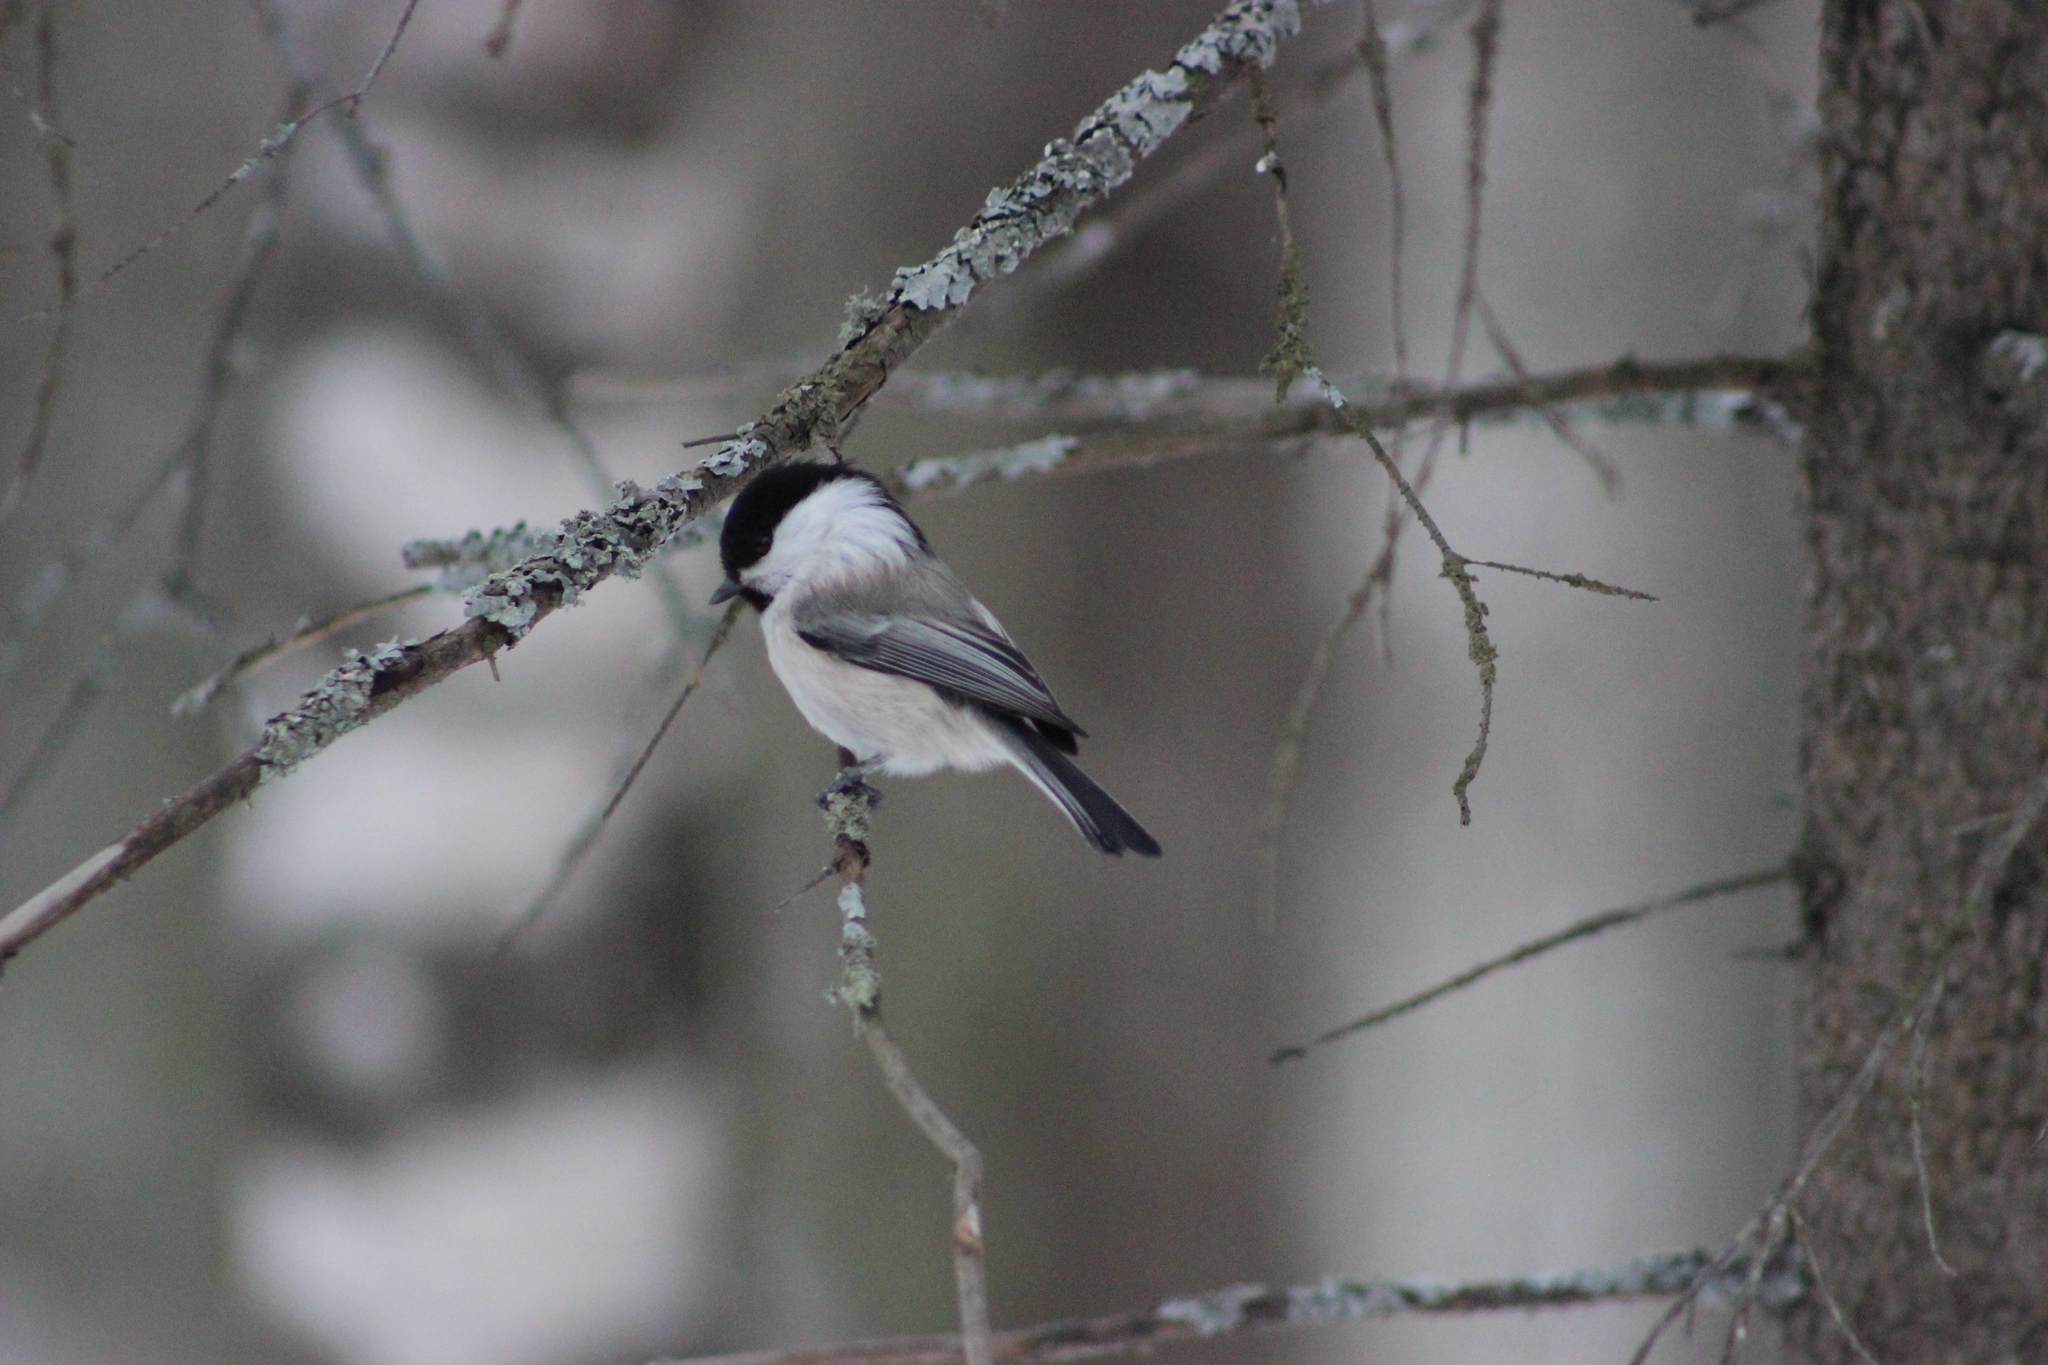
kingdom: Animalia
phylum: Chordata
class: Aves
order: Passeriformes
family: Paridae
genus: Poecile
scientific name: Poecile montanus
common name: Willow tit
